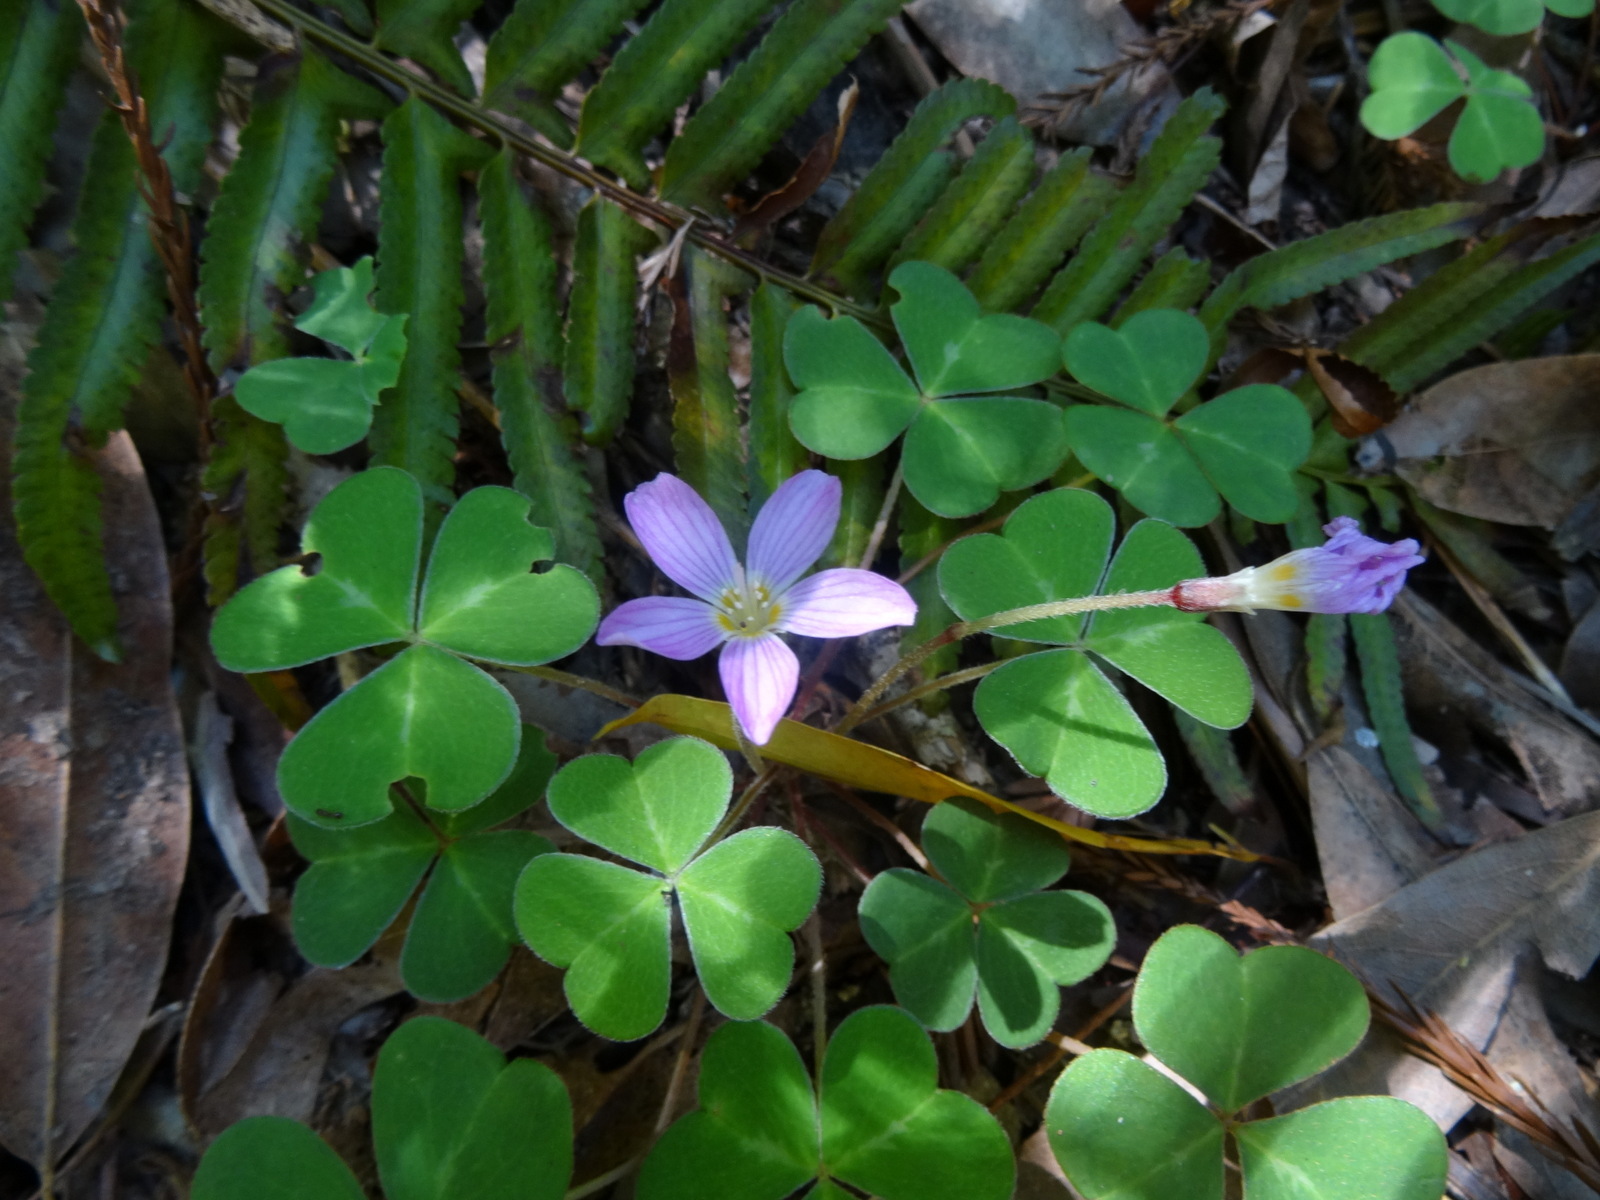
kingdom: Plantae
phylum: Tracheophyta
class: Magnoliopsida
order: Oxalidales
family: Oxalidaceae
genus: Oxalis
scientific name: Oxalis oregana
